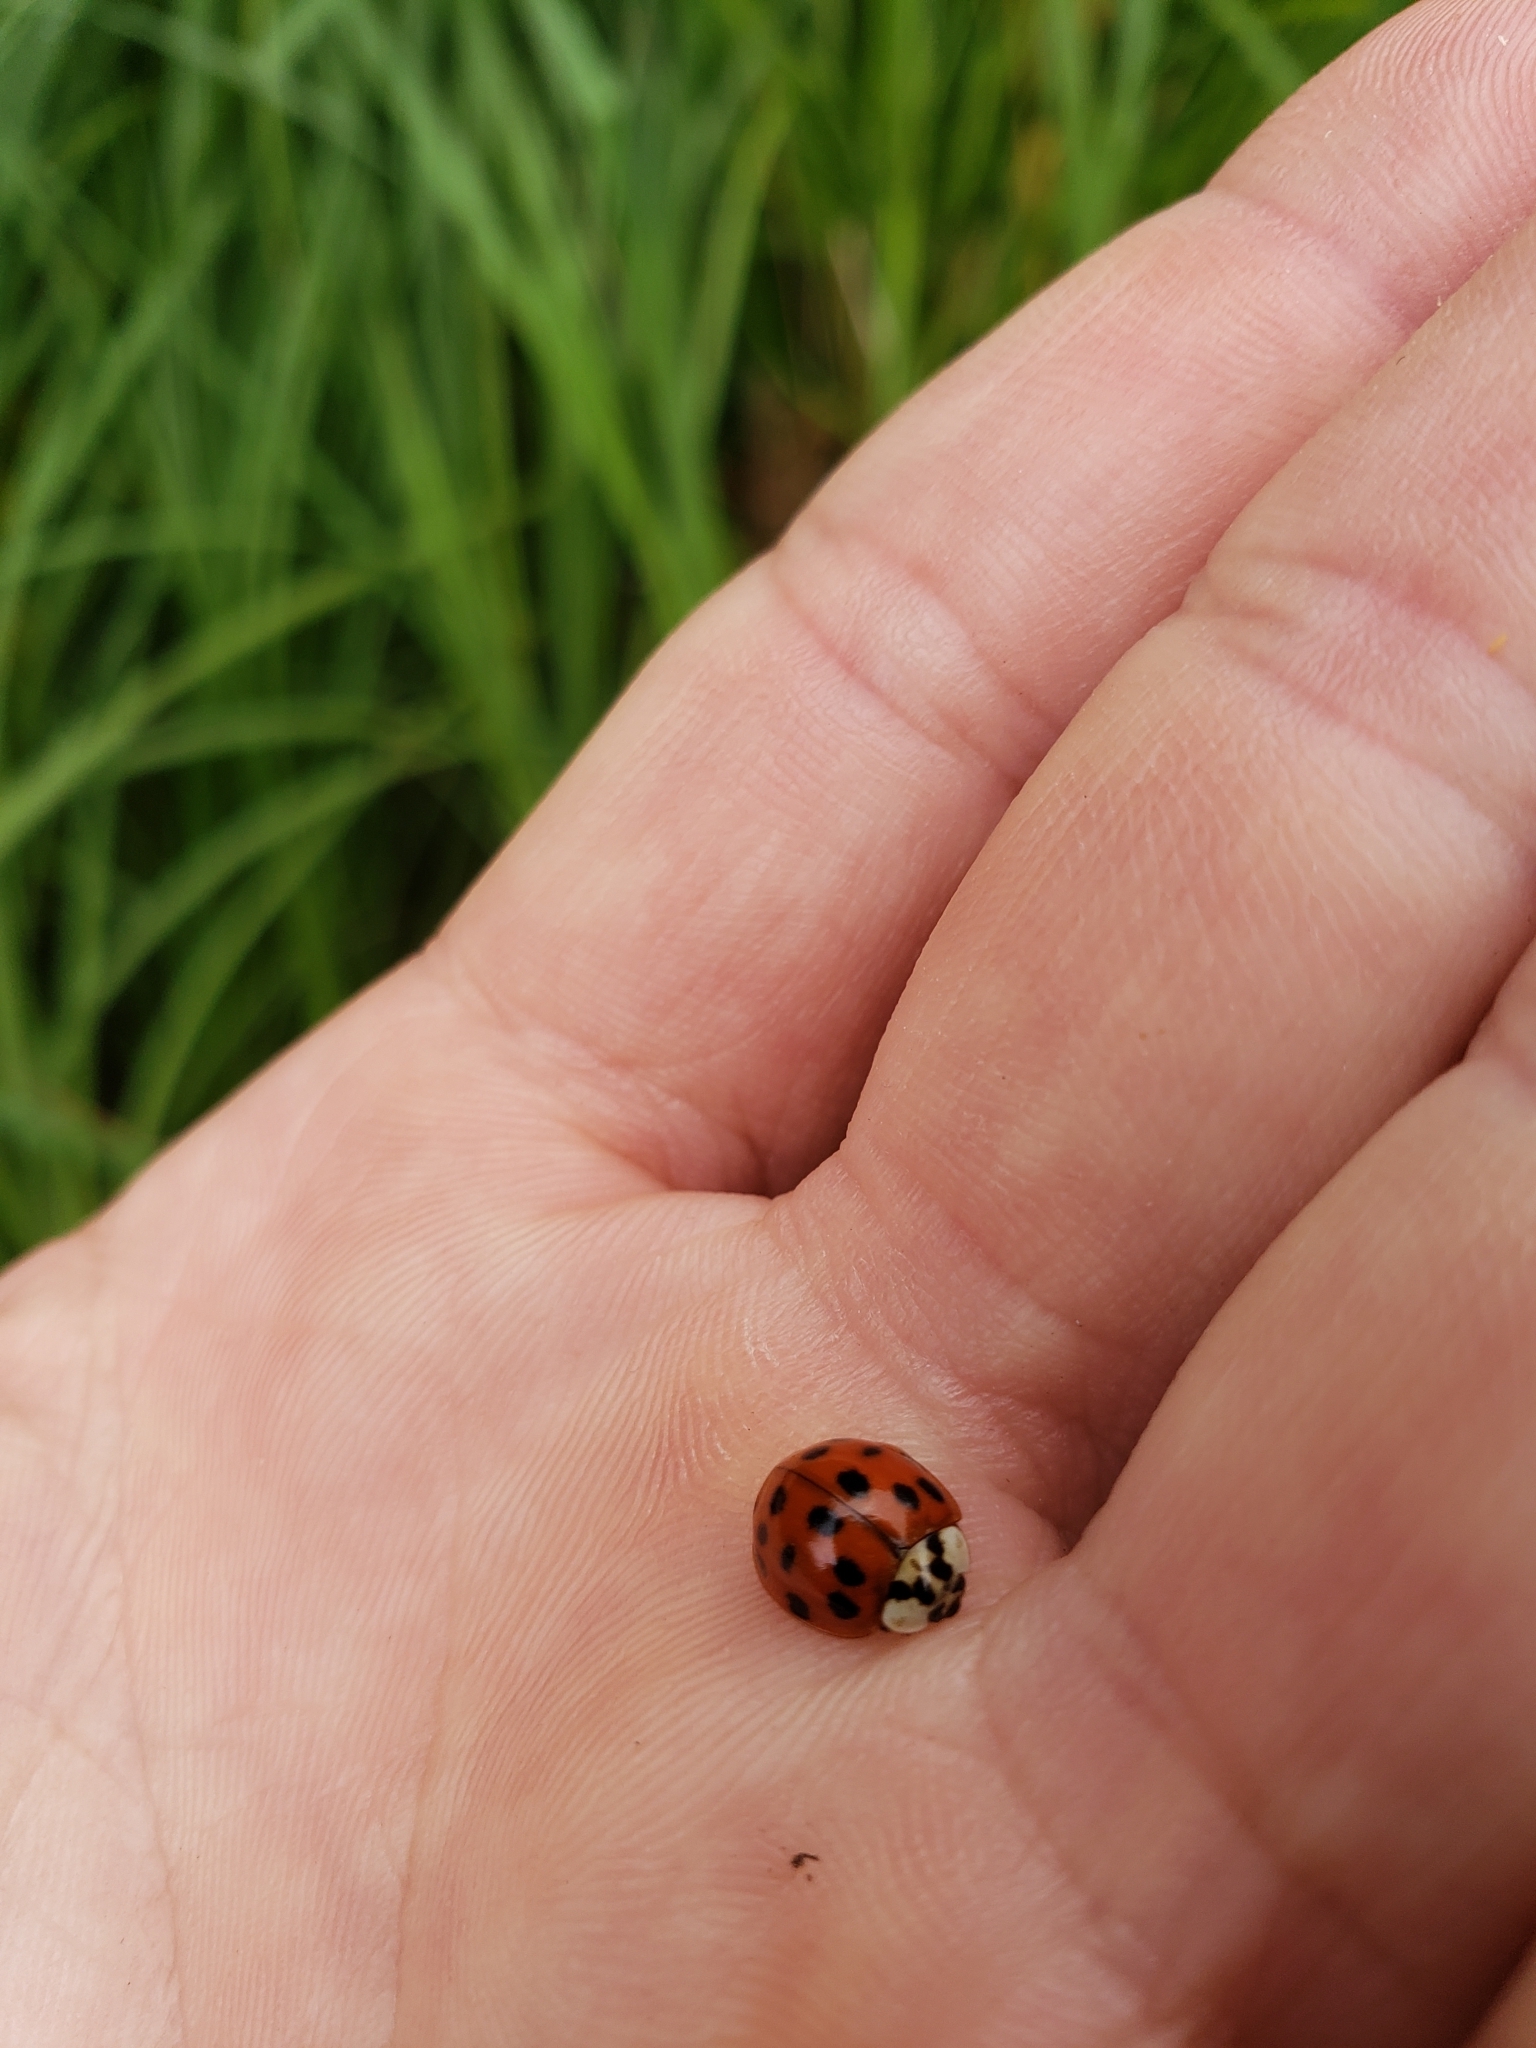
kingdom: Animalia
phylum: Arthropoda
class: Insecta
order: Coleoptera
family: Coccinellidae
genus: Harmonia
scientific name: Harmonia axyridis
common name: Harlequin ladybird
